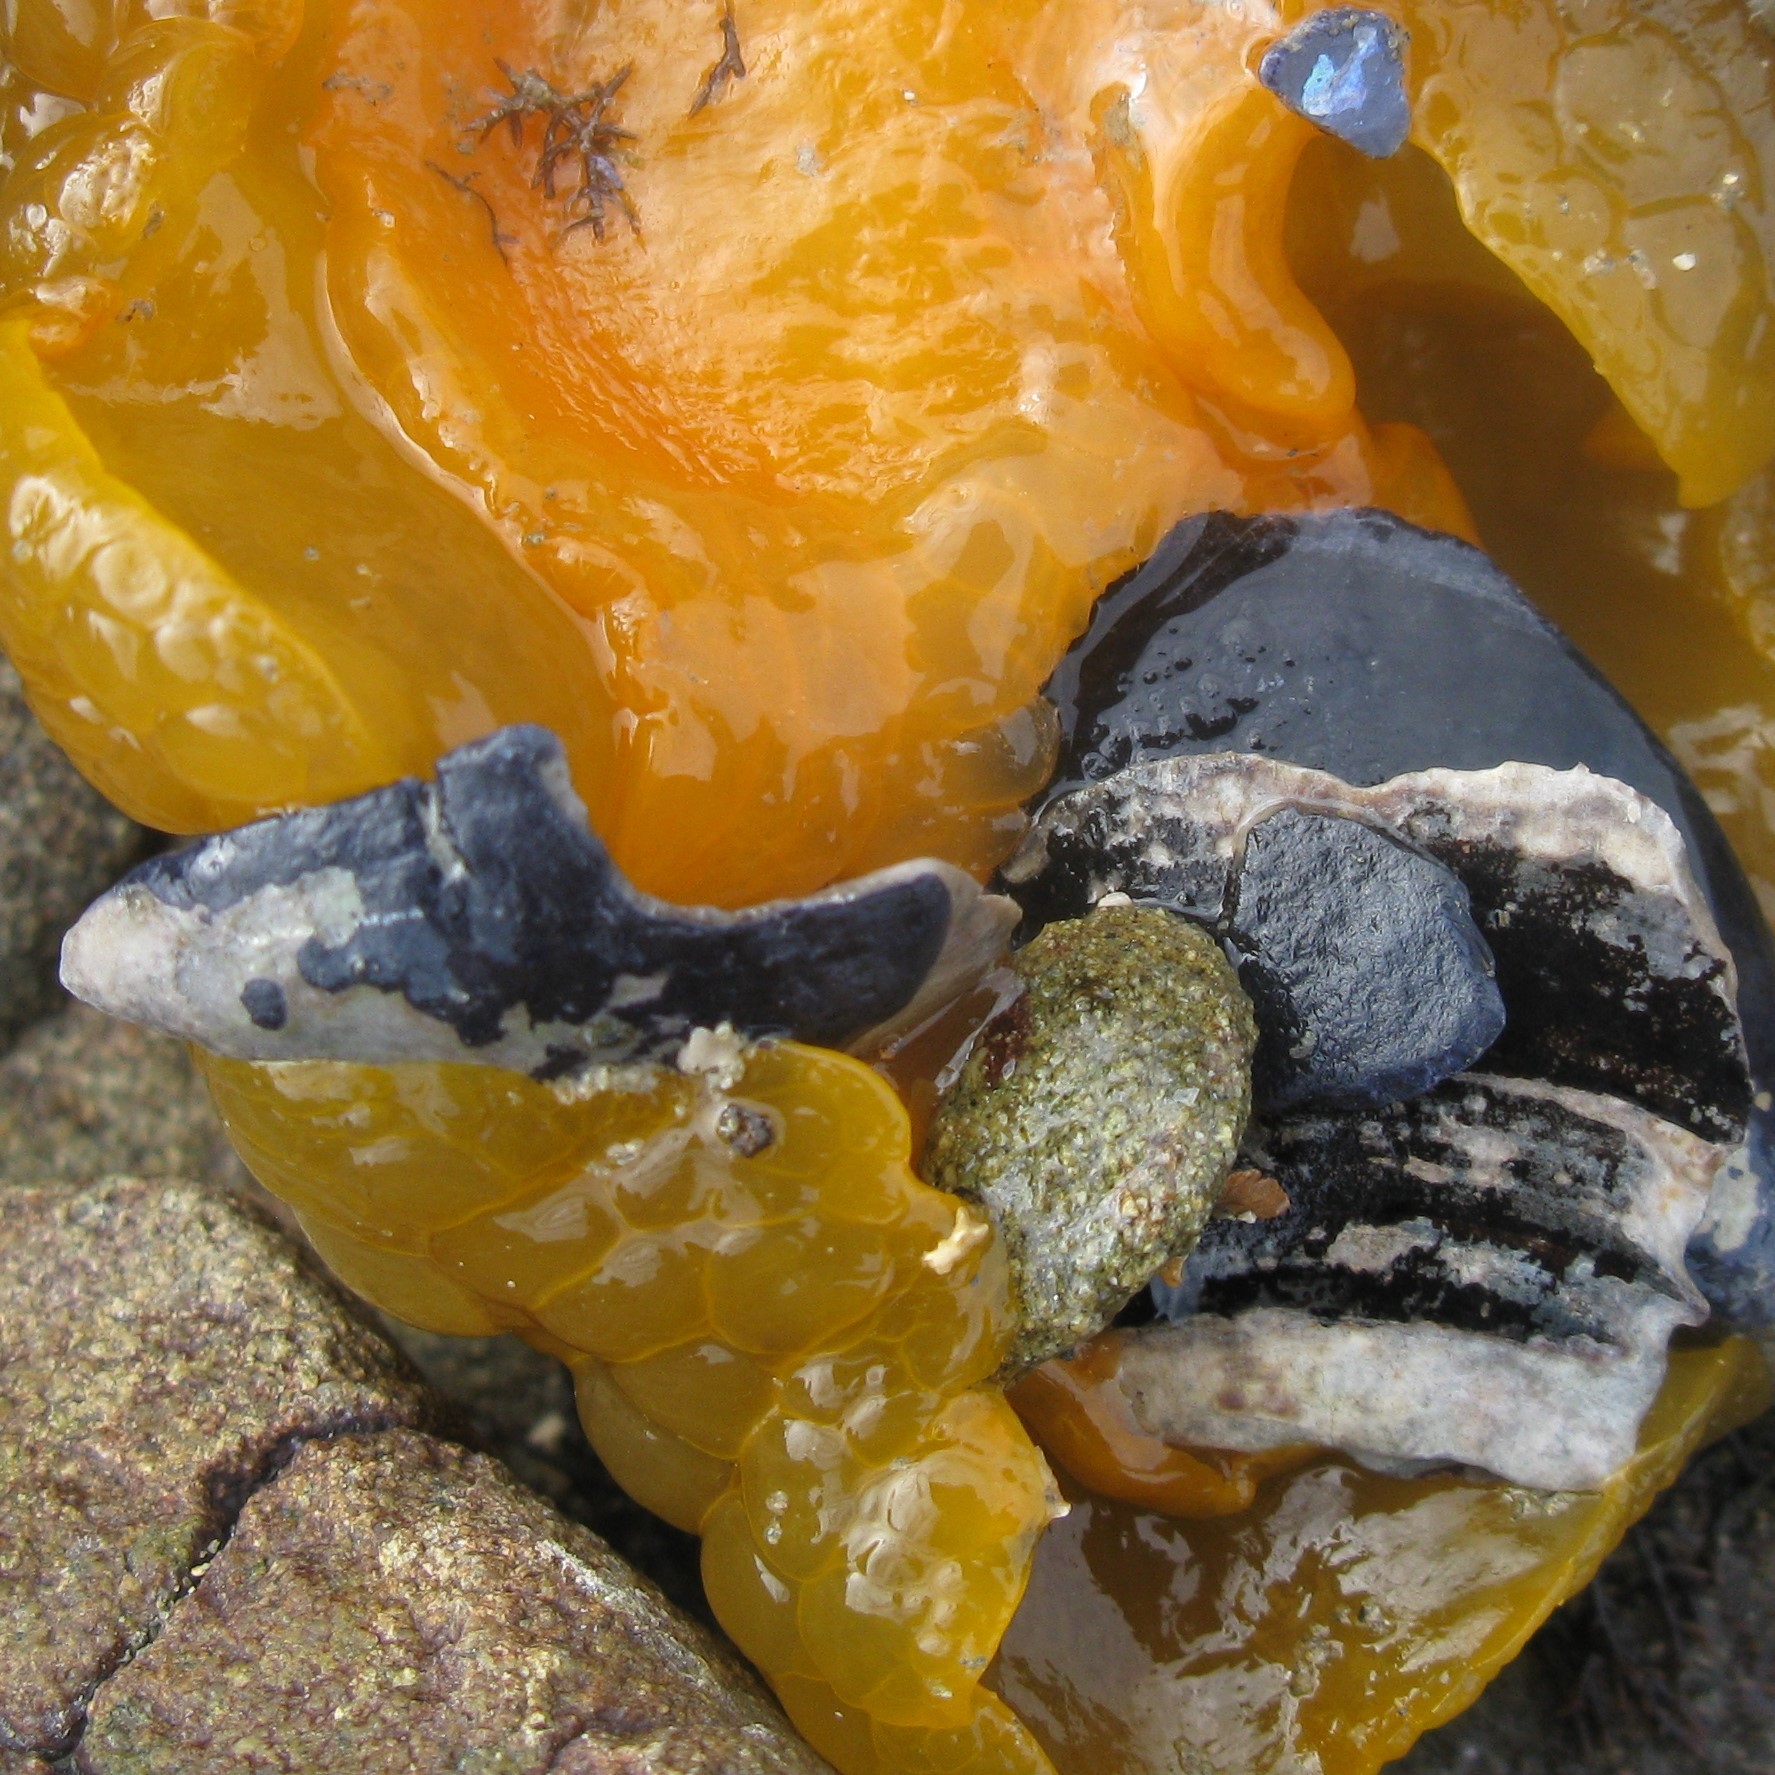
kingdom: Animalia
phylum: Mollusca
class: Gastropoda
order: Nudibranchia
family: Dorididae
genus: Doris
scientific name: Doris wellingtonensis
